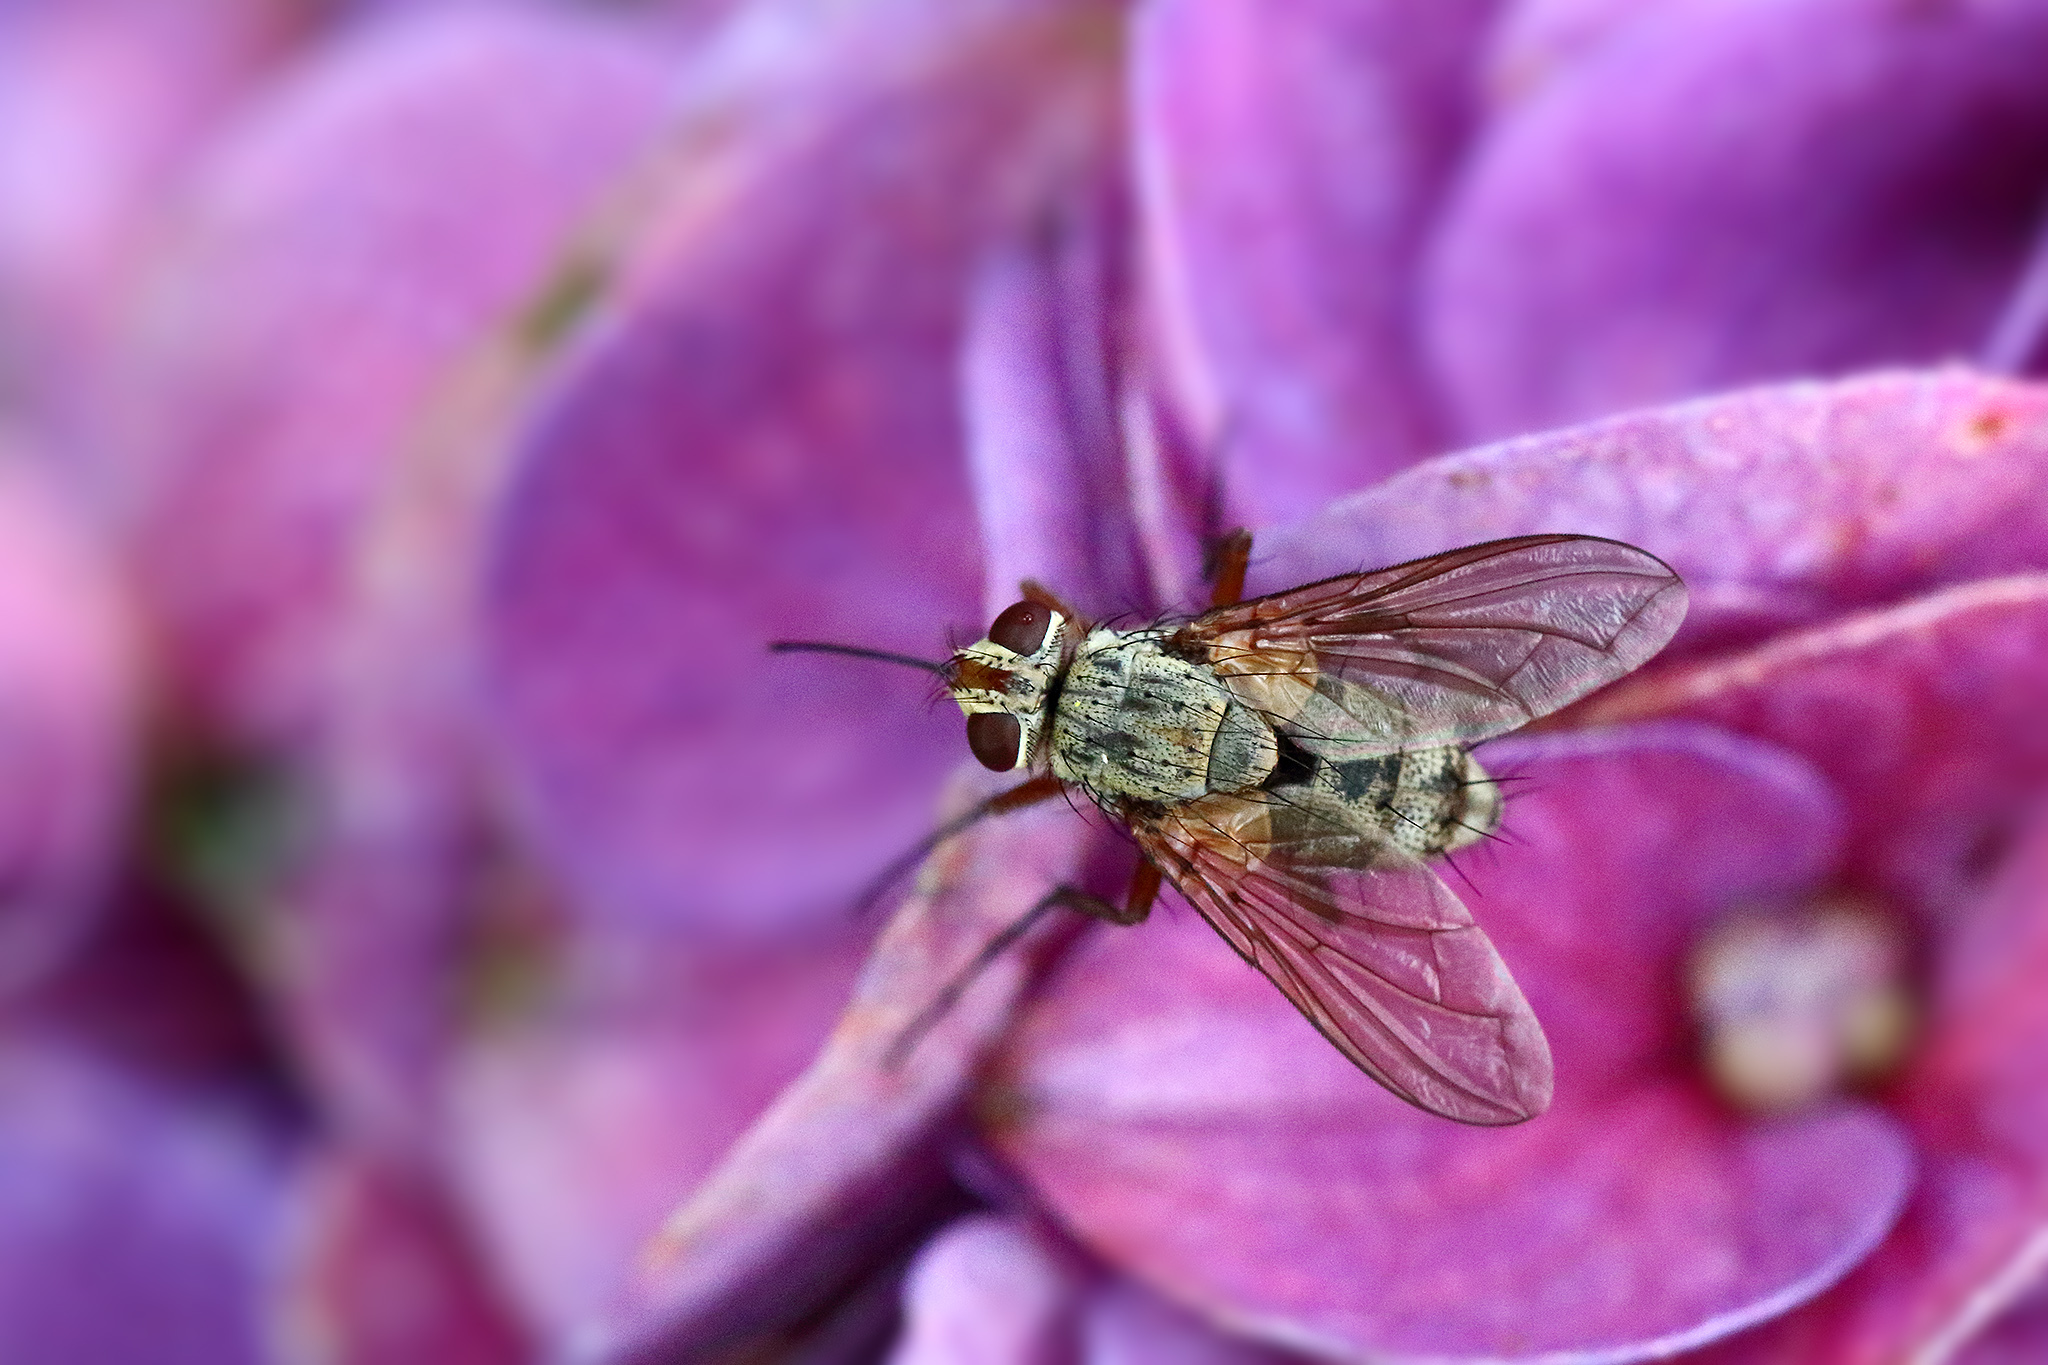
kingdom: Animalia
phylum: Arthropoda
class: Insecta
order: Diptera
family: Tachinidae
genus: Prosena
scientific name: Prosena siberita
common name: Parasitic fly
